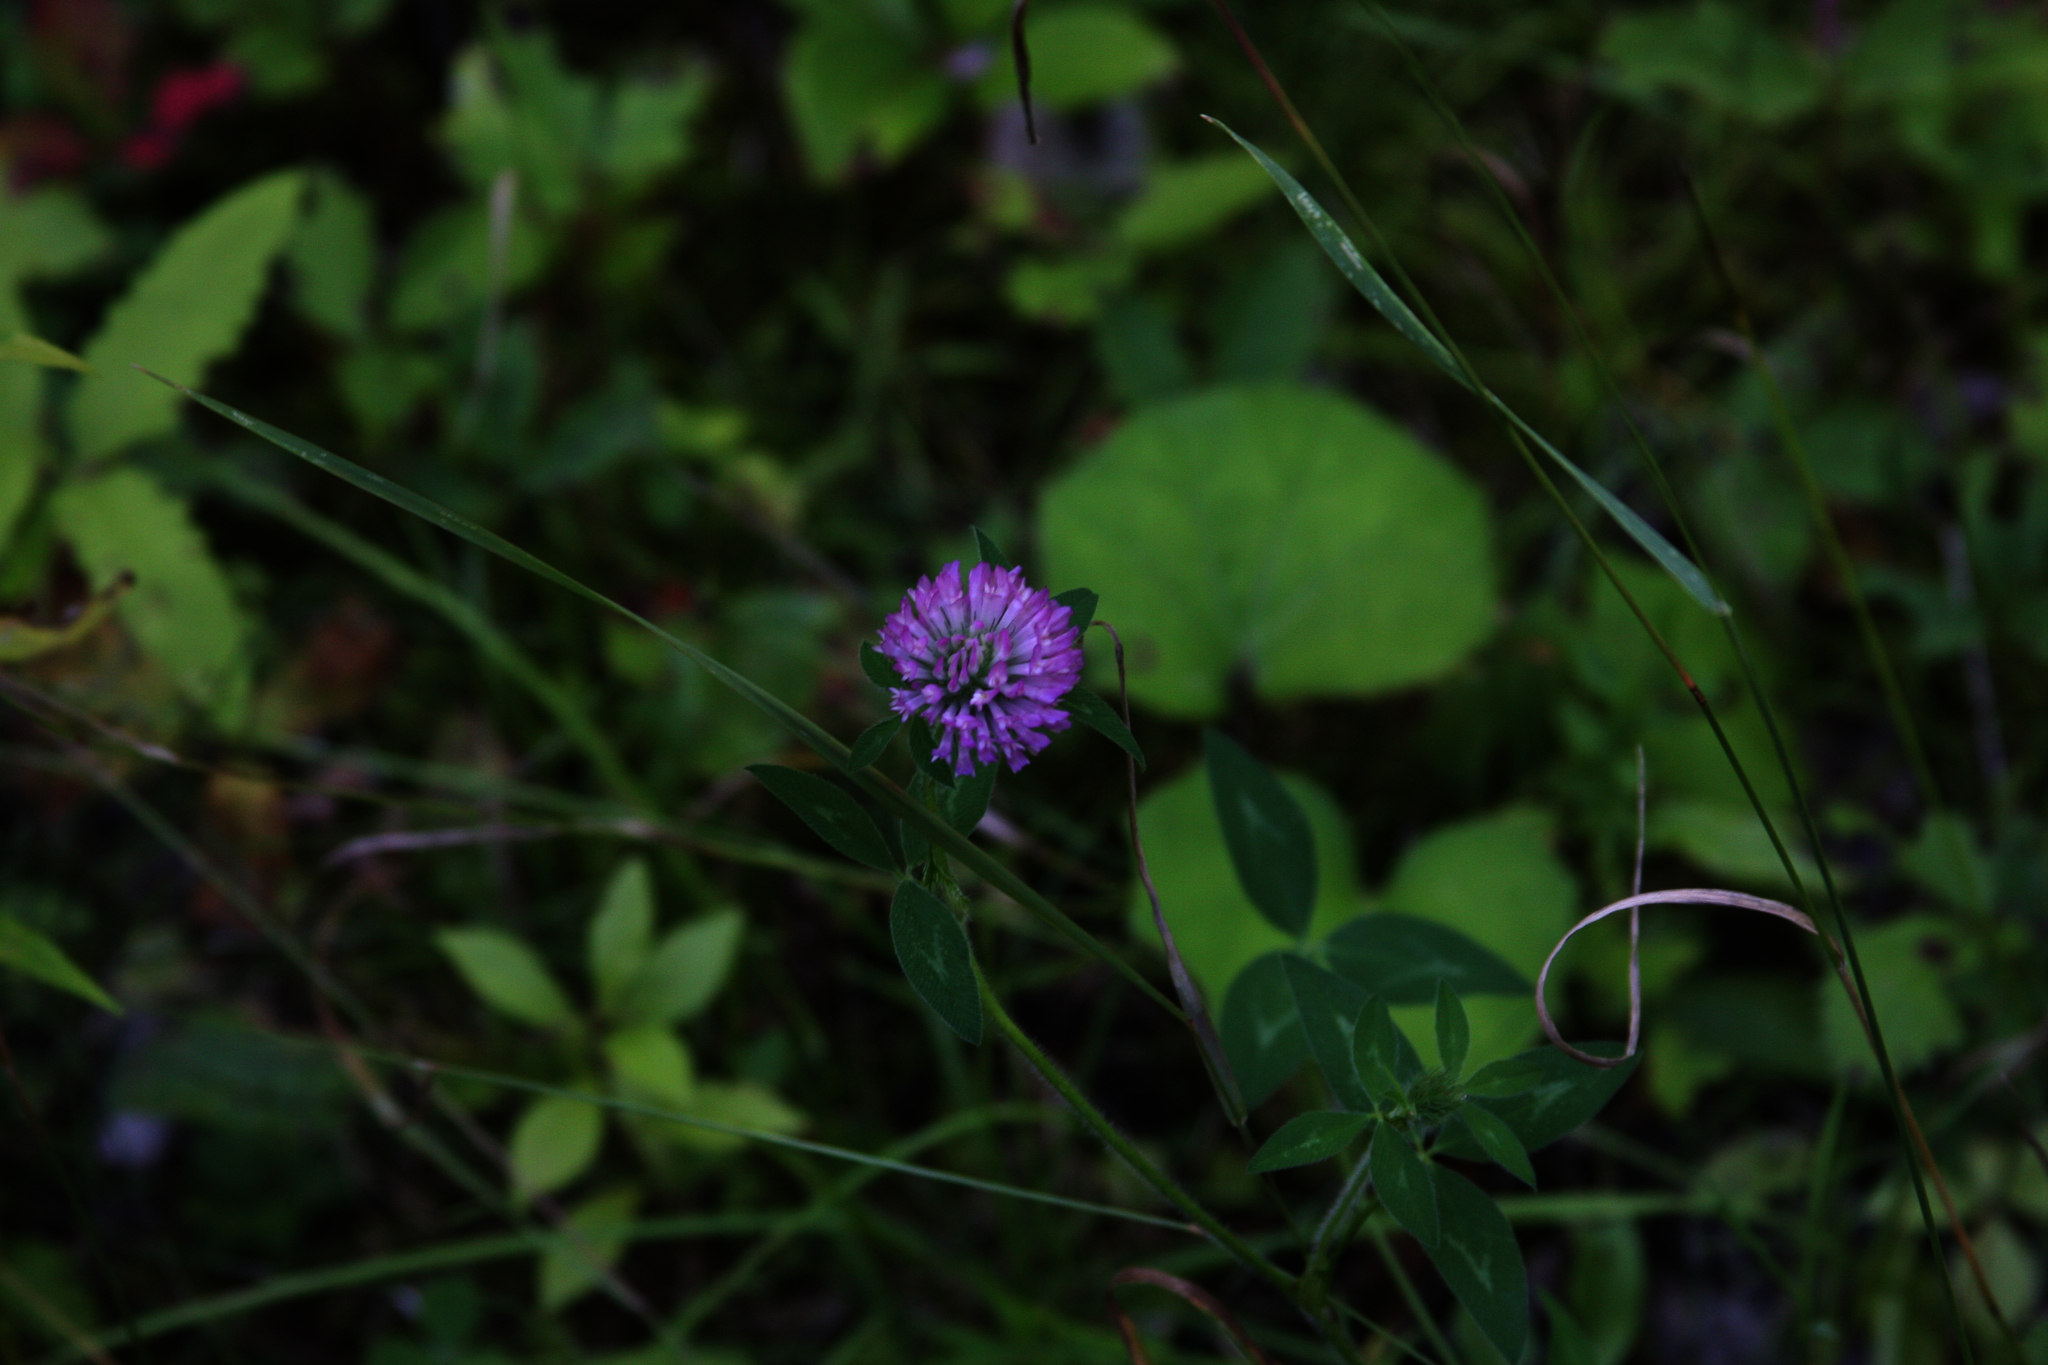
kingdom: Plantae
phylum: Tracheophyta
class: Magnoliopsida
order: Fabales
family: Fabaceae
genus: Trifolium
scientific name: Trifolium pratense
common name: Red clover
